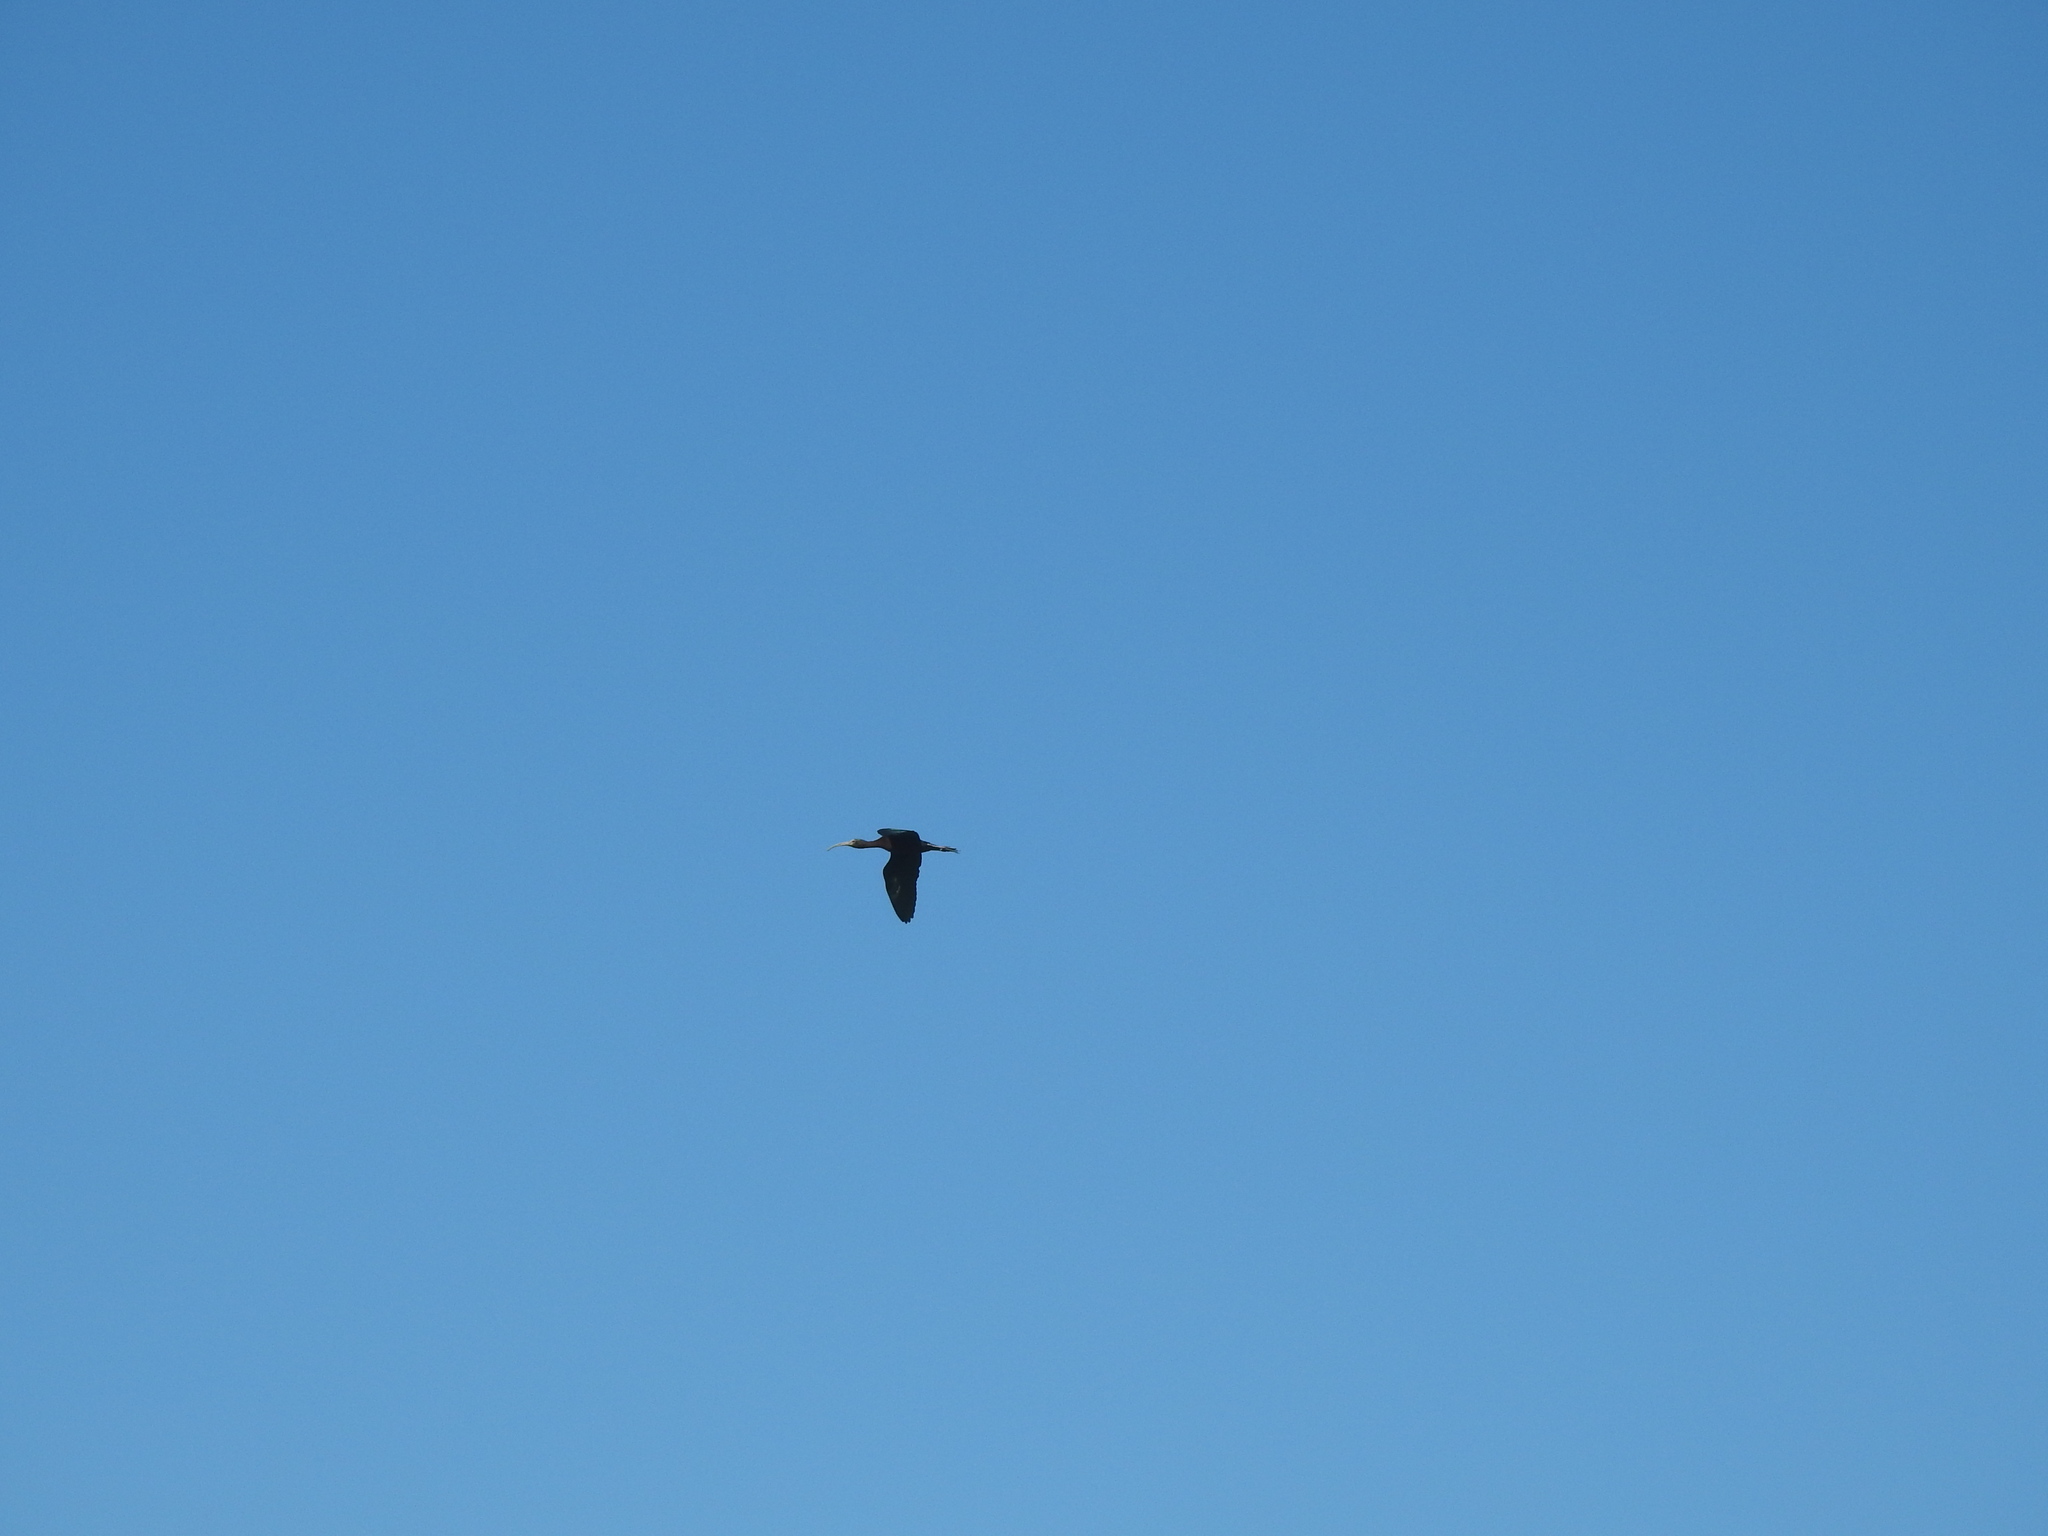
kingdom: Animalia
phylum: Chordata
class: Aves
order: Pelecaniformes
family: Threskiornithidae
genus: Plegadis
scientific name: Plegadis chihi
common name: White-faced ibis
